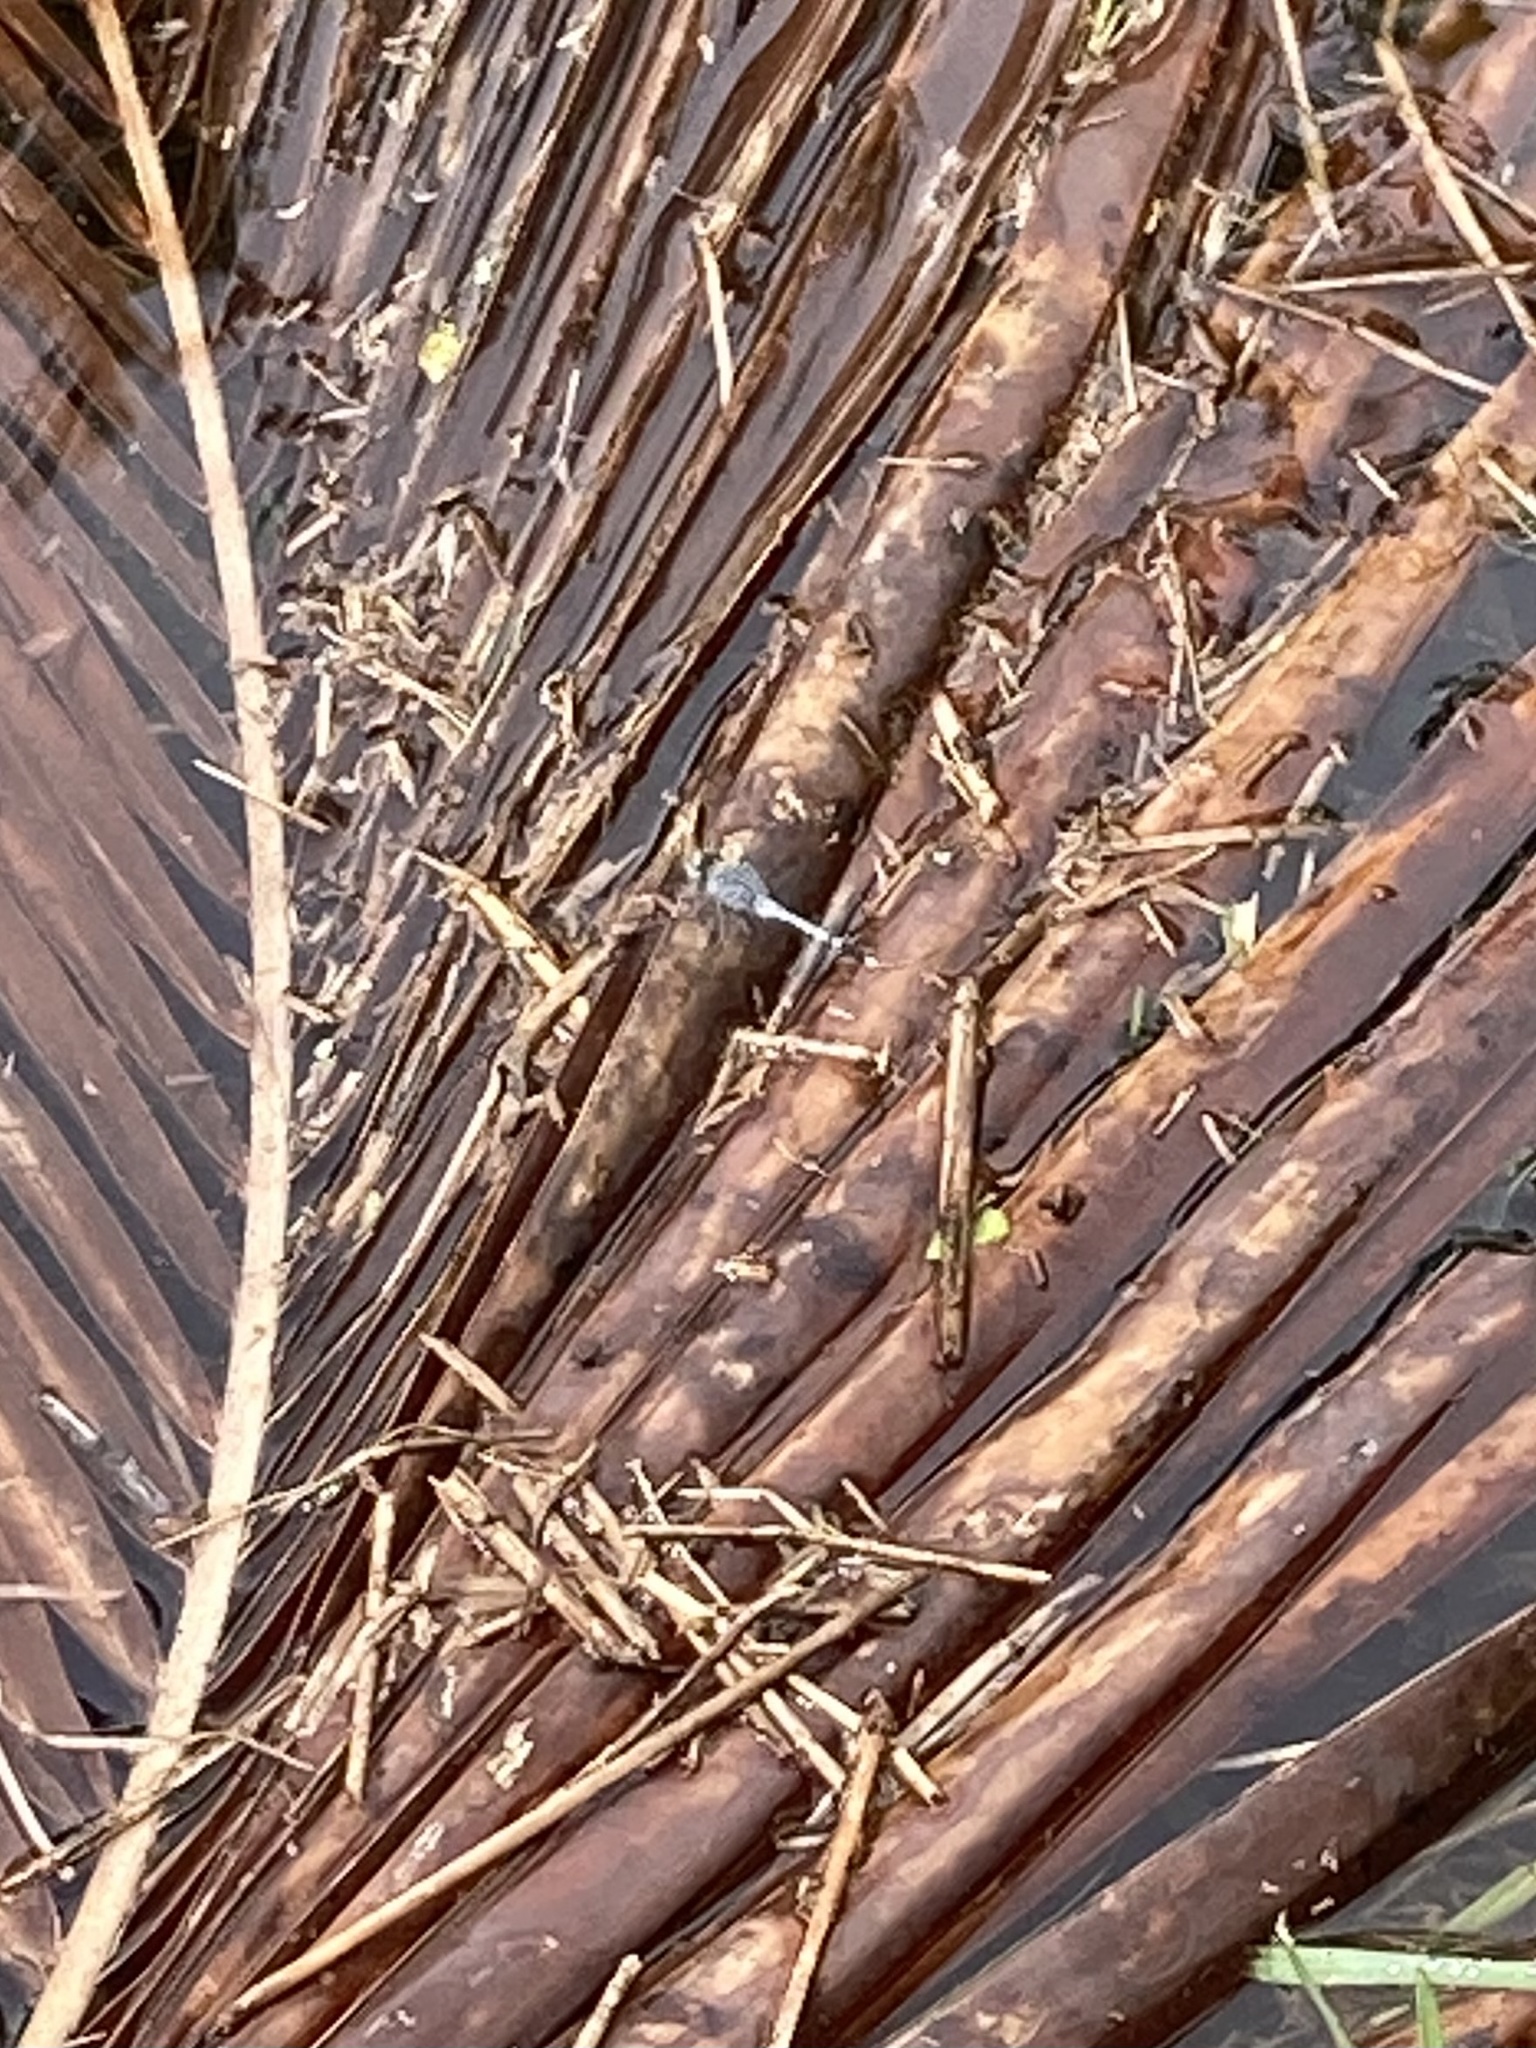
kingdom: Animalia
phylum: Arthropoda
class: Insecta
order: Odonata
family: Libellulidae
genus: Diplacodes
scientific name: Diplacodes trivialis
